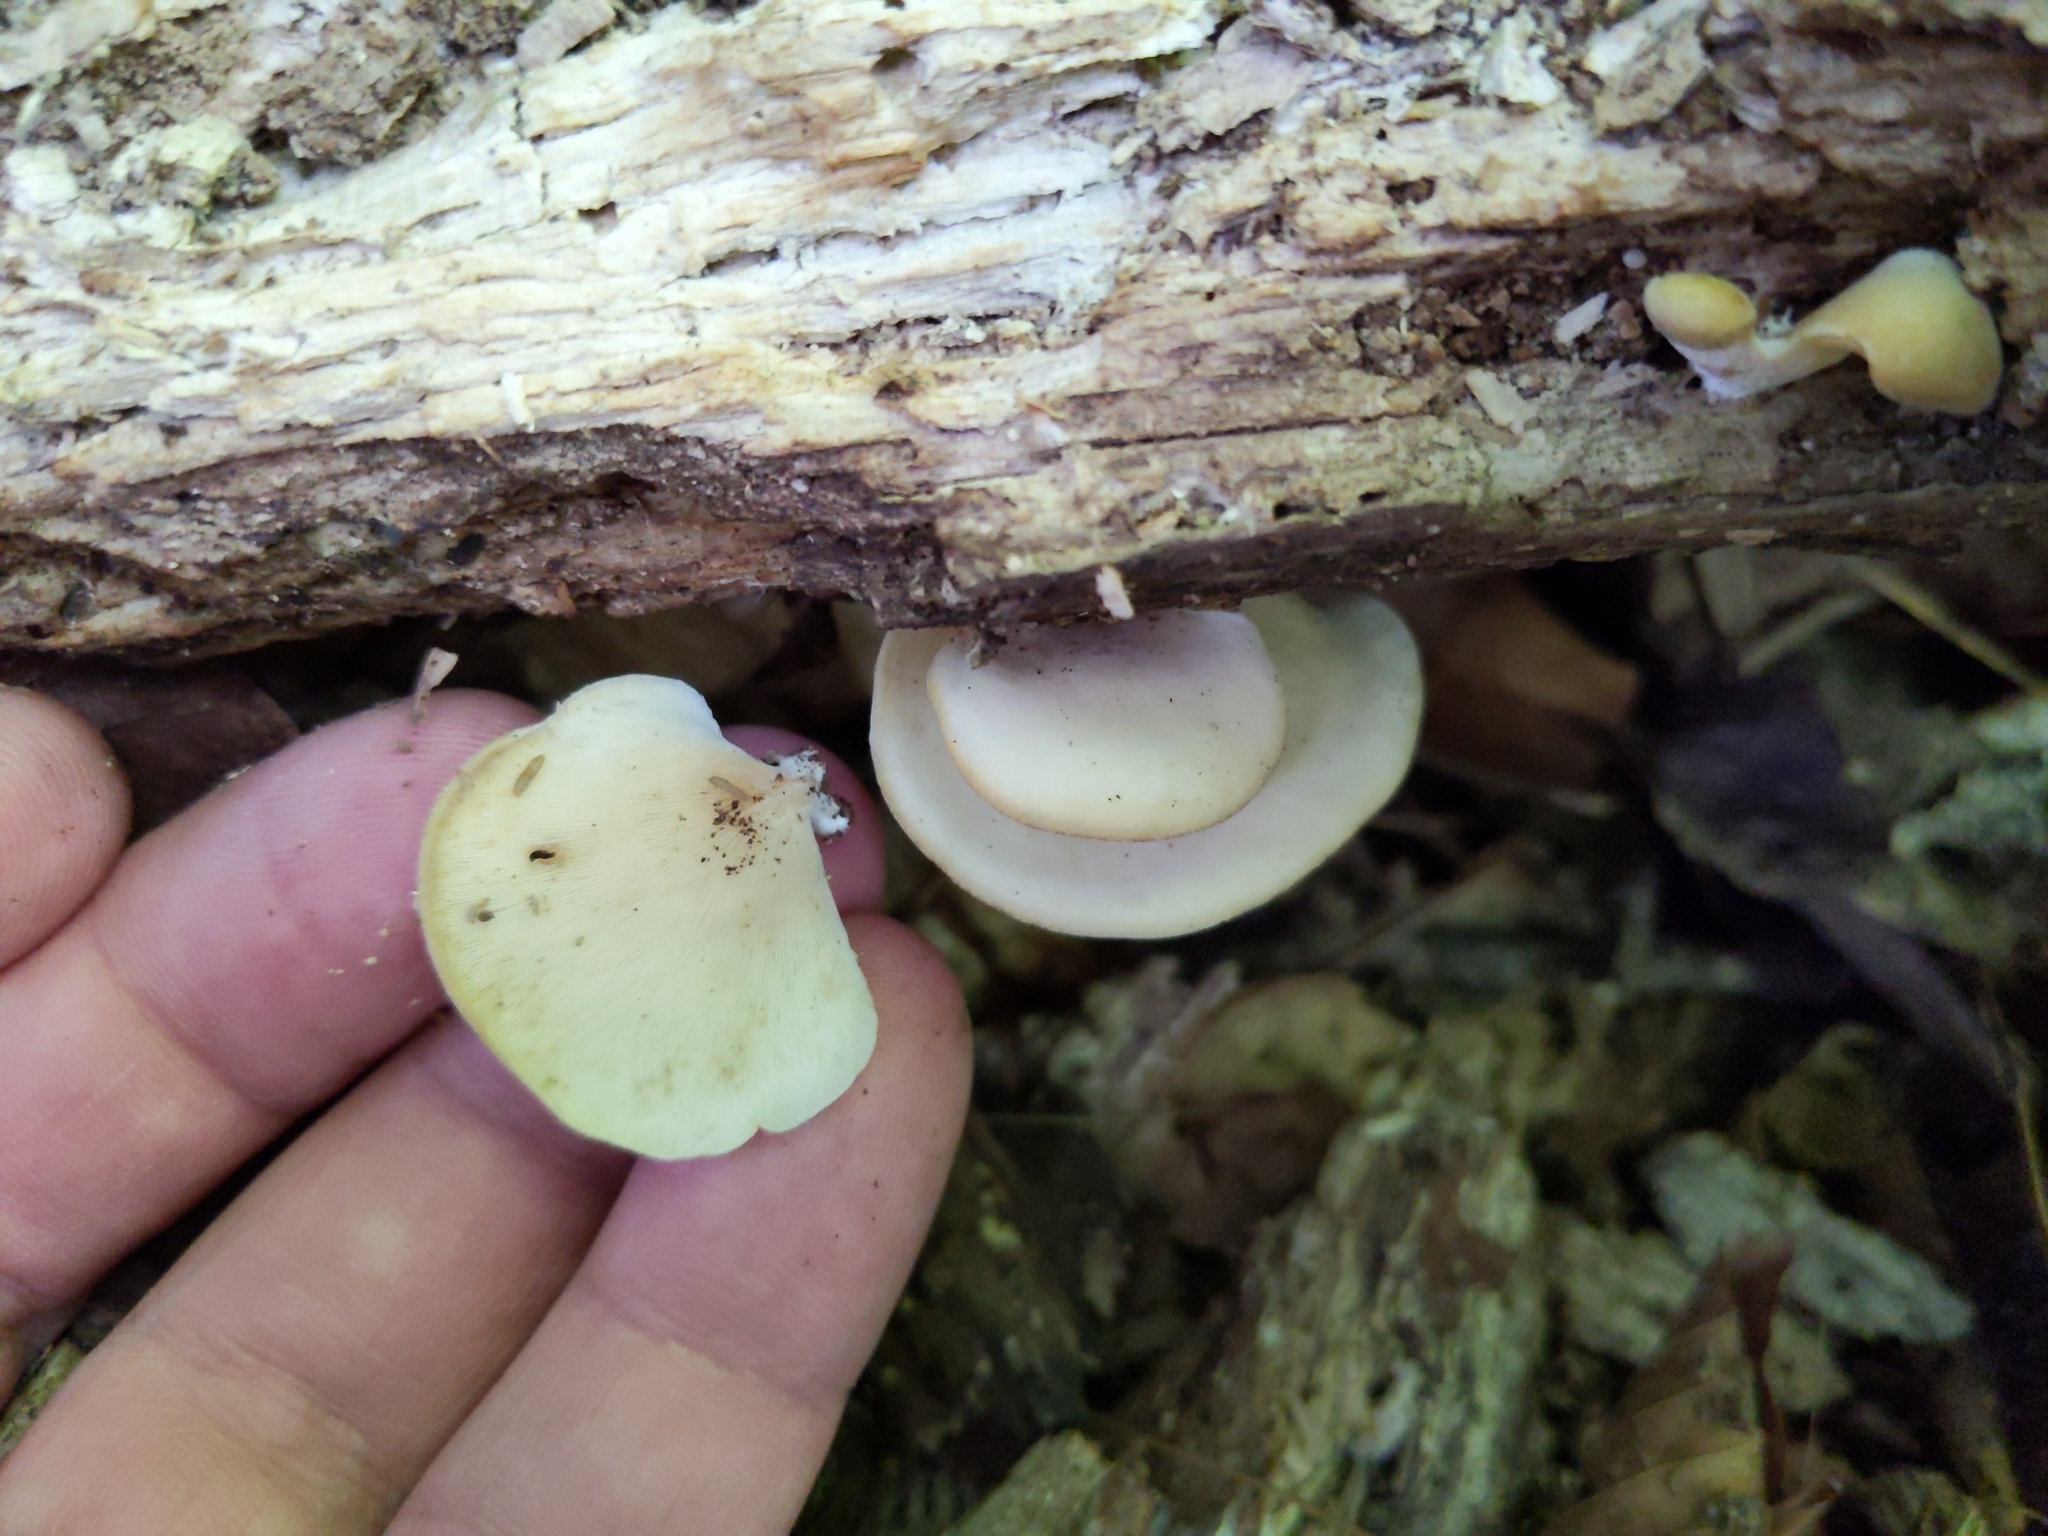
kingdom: Fungi
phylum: Basidiomycota
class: Agaricomycetes
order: Agaricales
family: Pleurotaceae
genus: Hohenbuehelia
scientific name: Hohenbuehelia angustata
